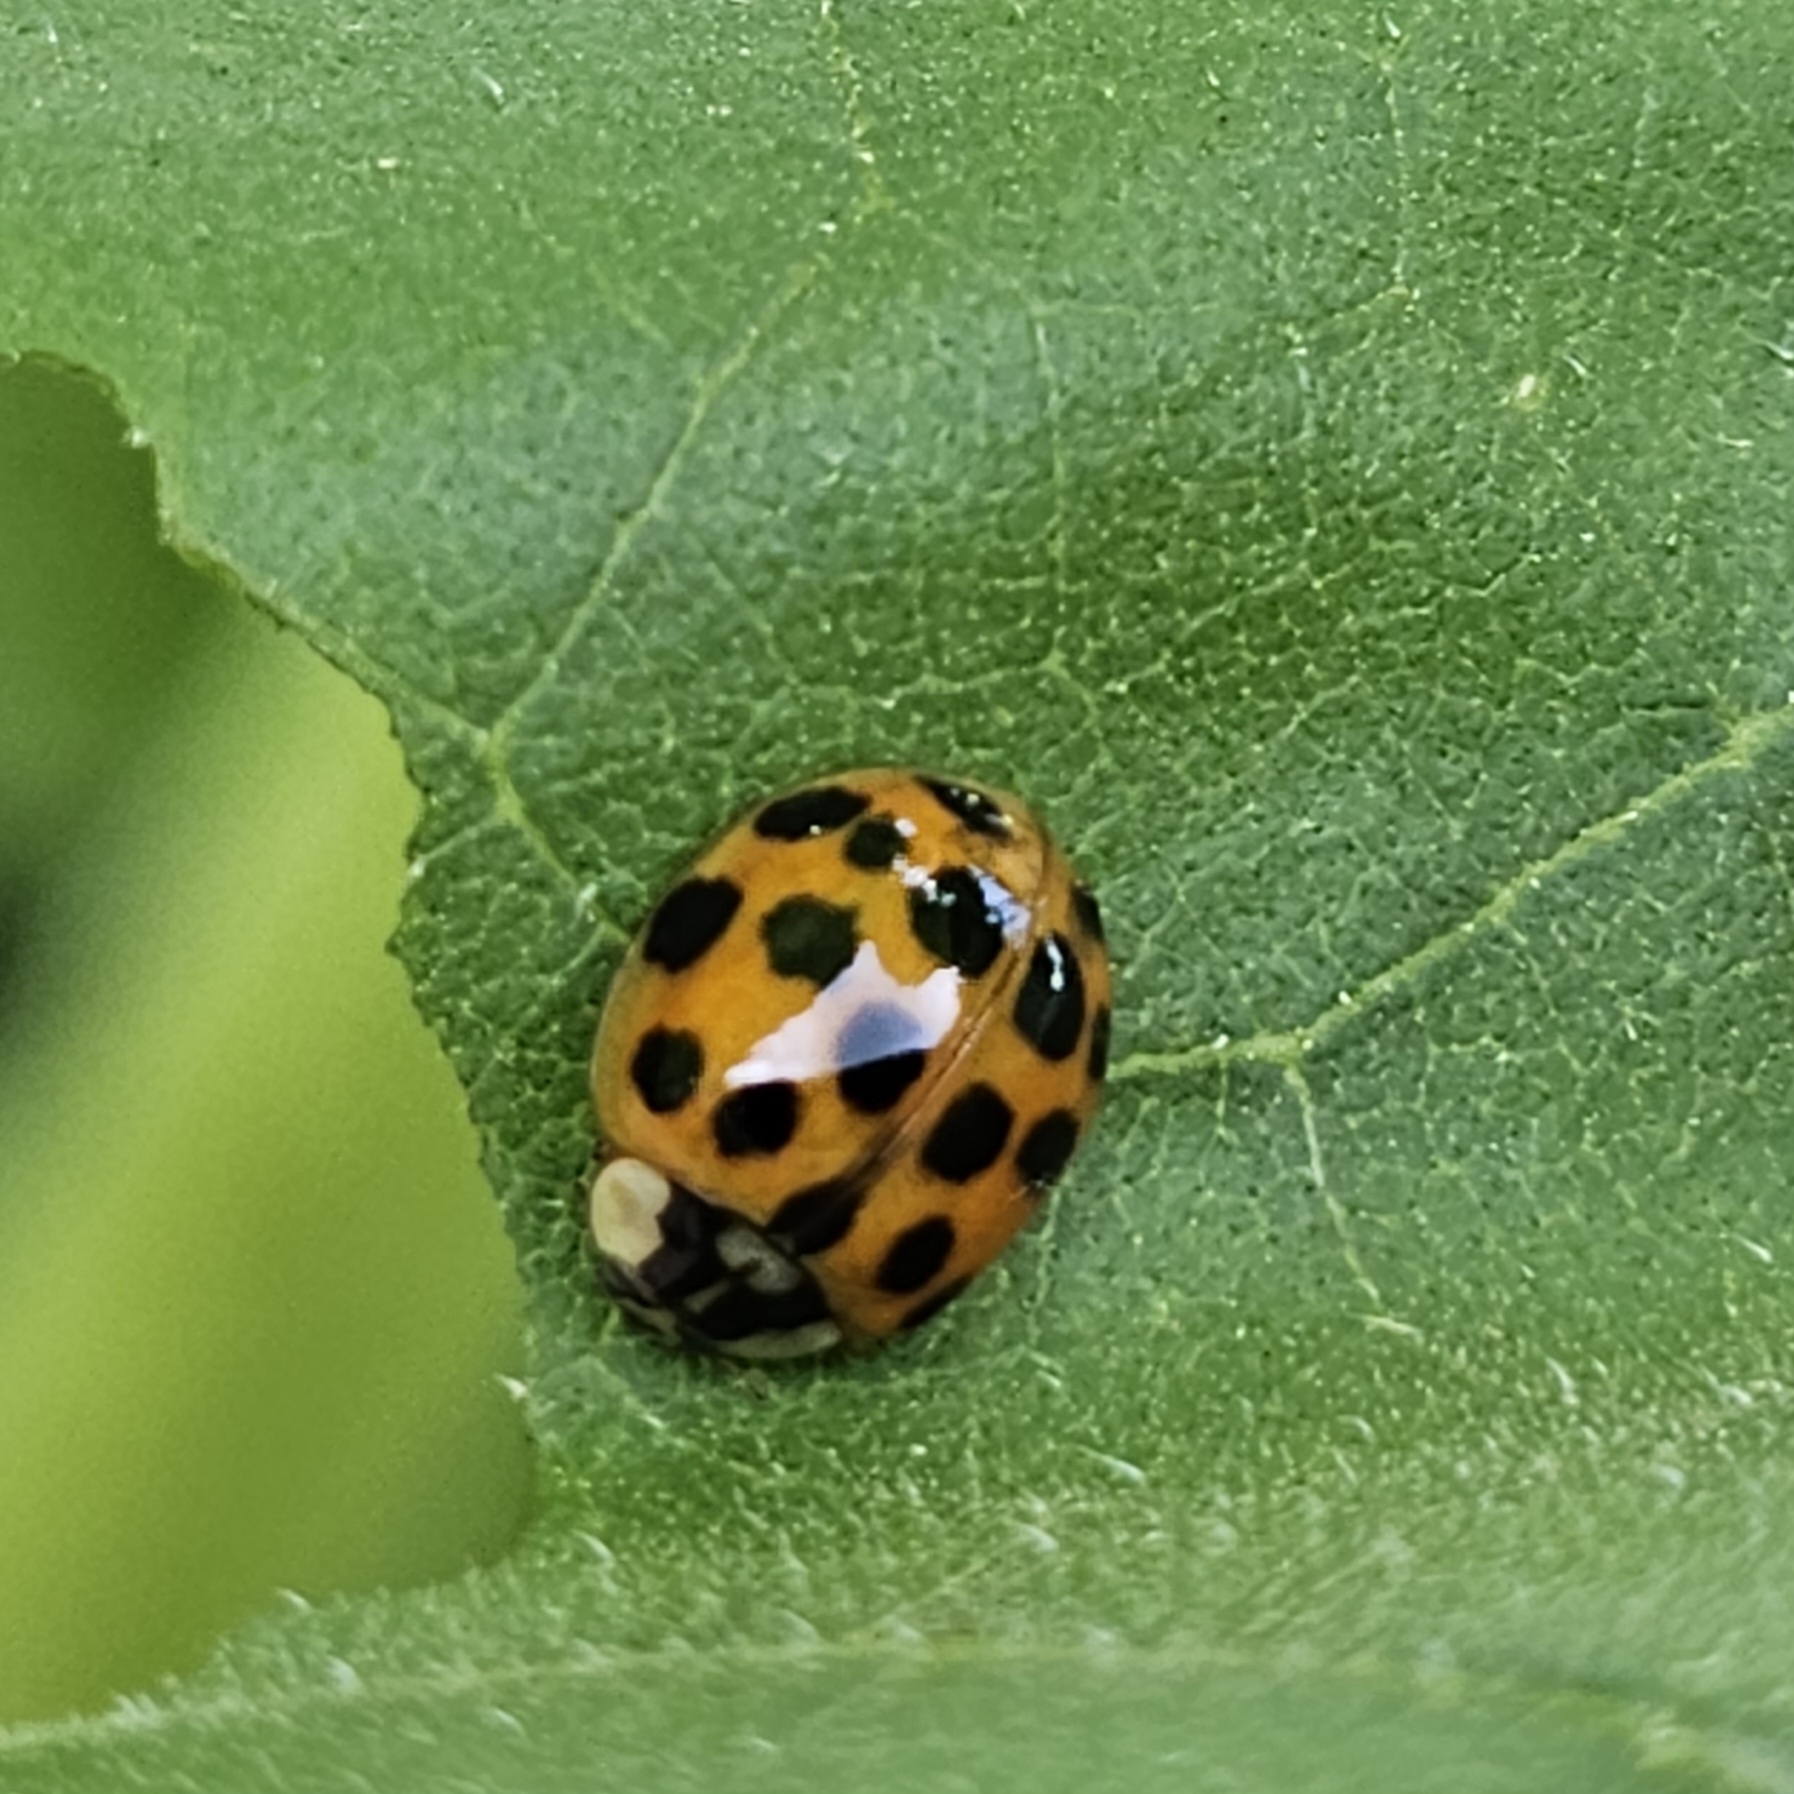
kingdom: Animalia
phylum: Arthropoda
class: Insecta
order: Coleoptera
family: Coccinellidae
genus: Harmonia
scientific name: Harmonia axyridis
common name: Harlequin ladybird
